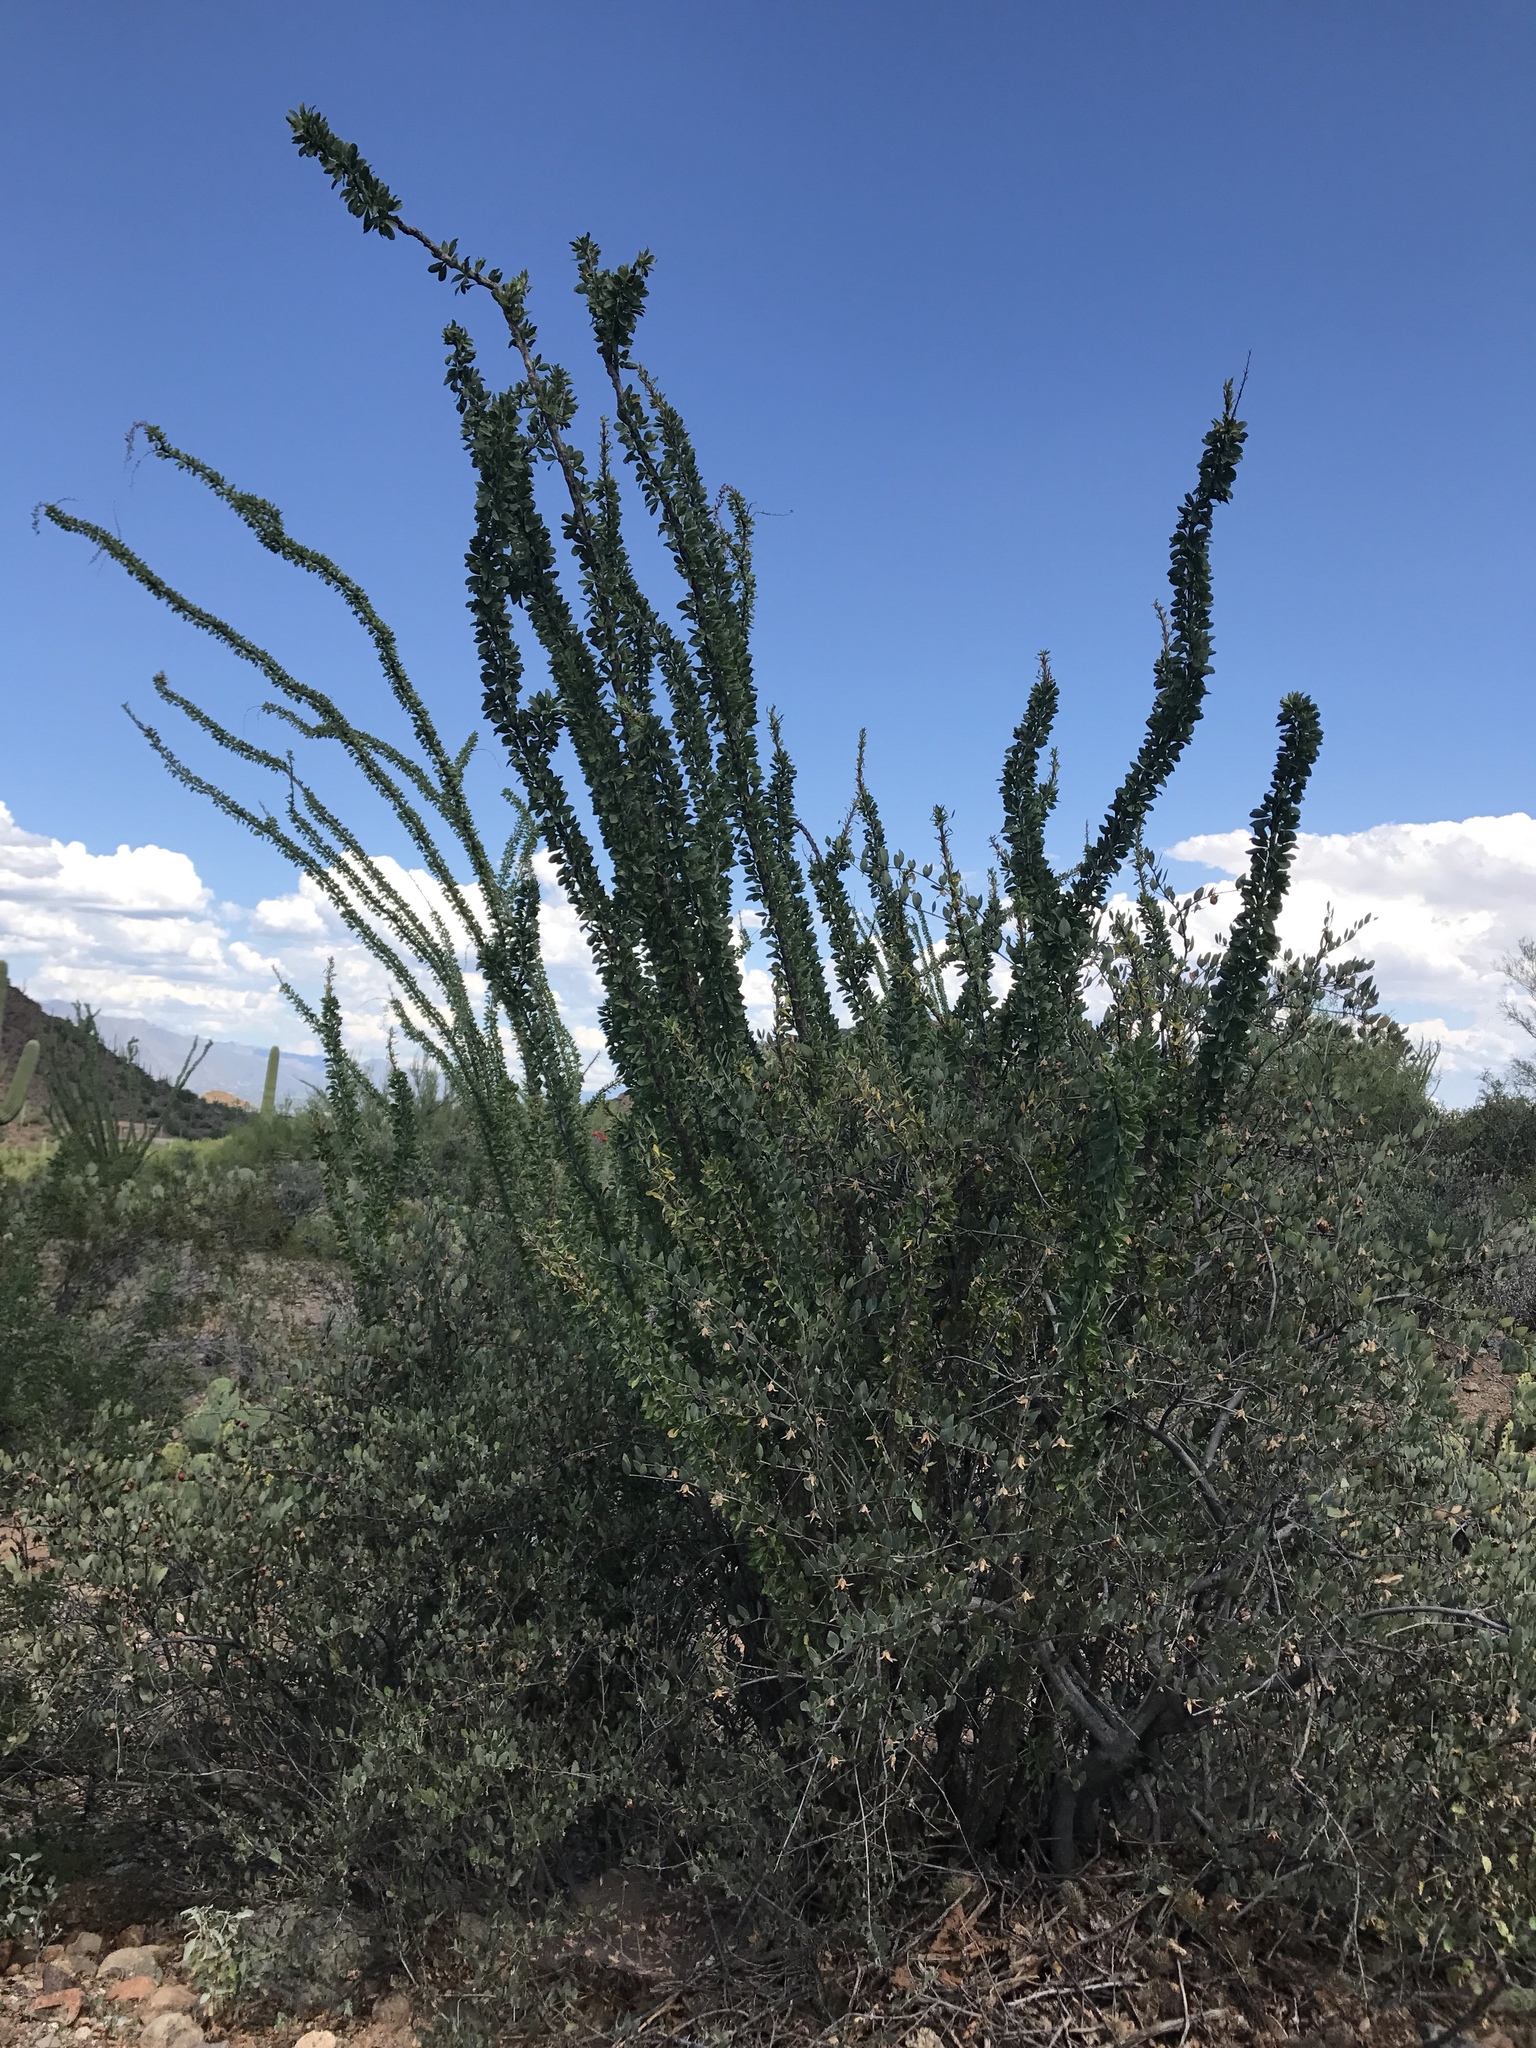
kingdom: Plantae
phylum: Tracheophyta
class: Magnoliopsida
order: Ericales
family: Fouquieriaceae
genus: Fouquieria
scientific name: Fouquieria splendens
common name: Vine-cactus
